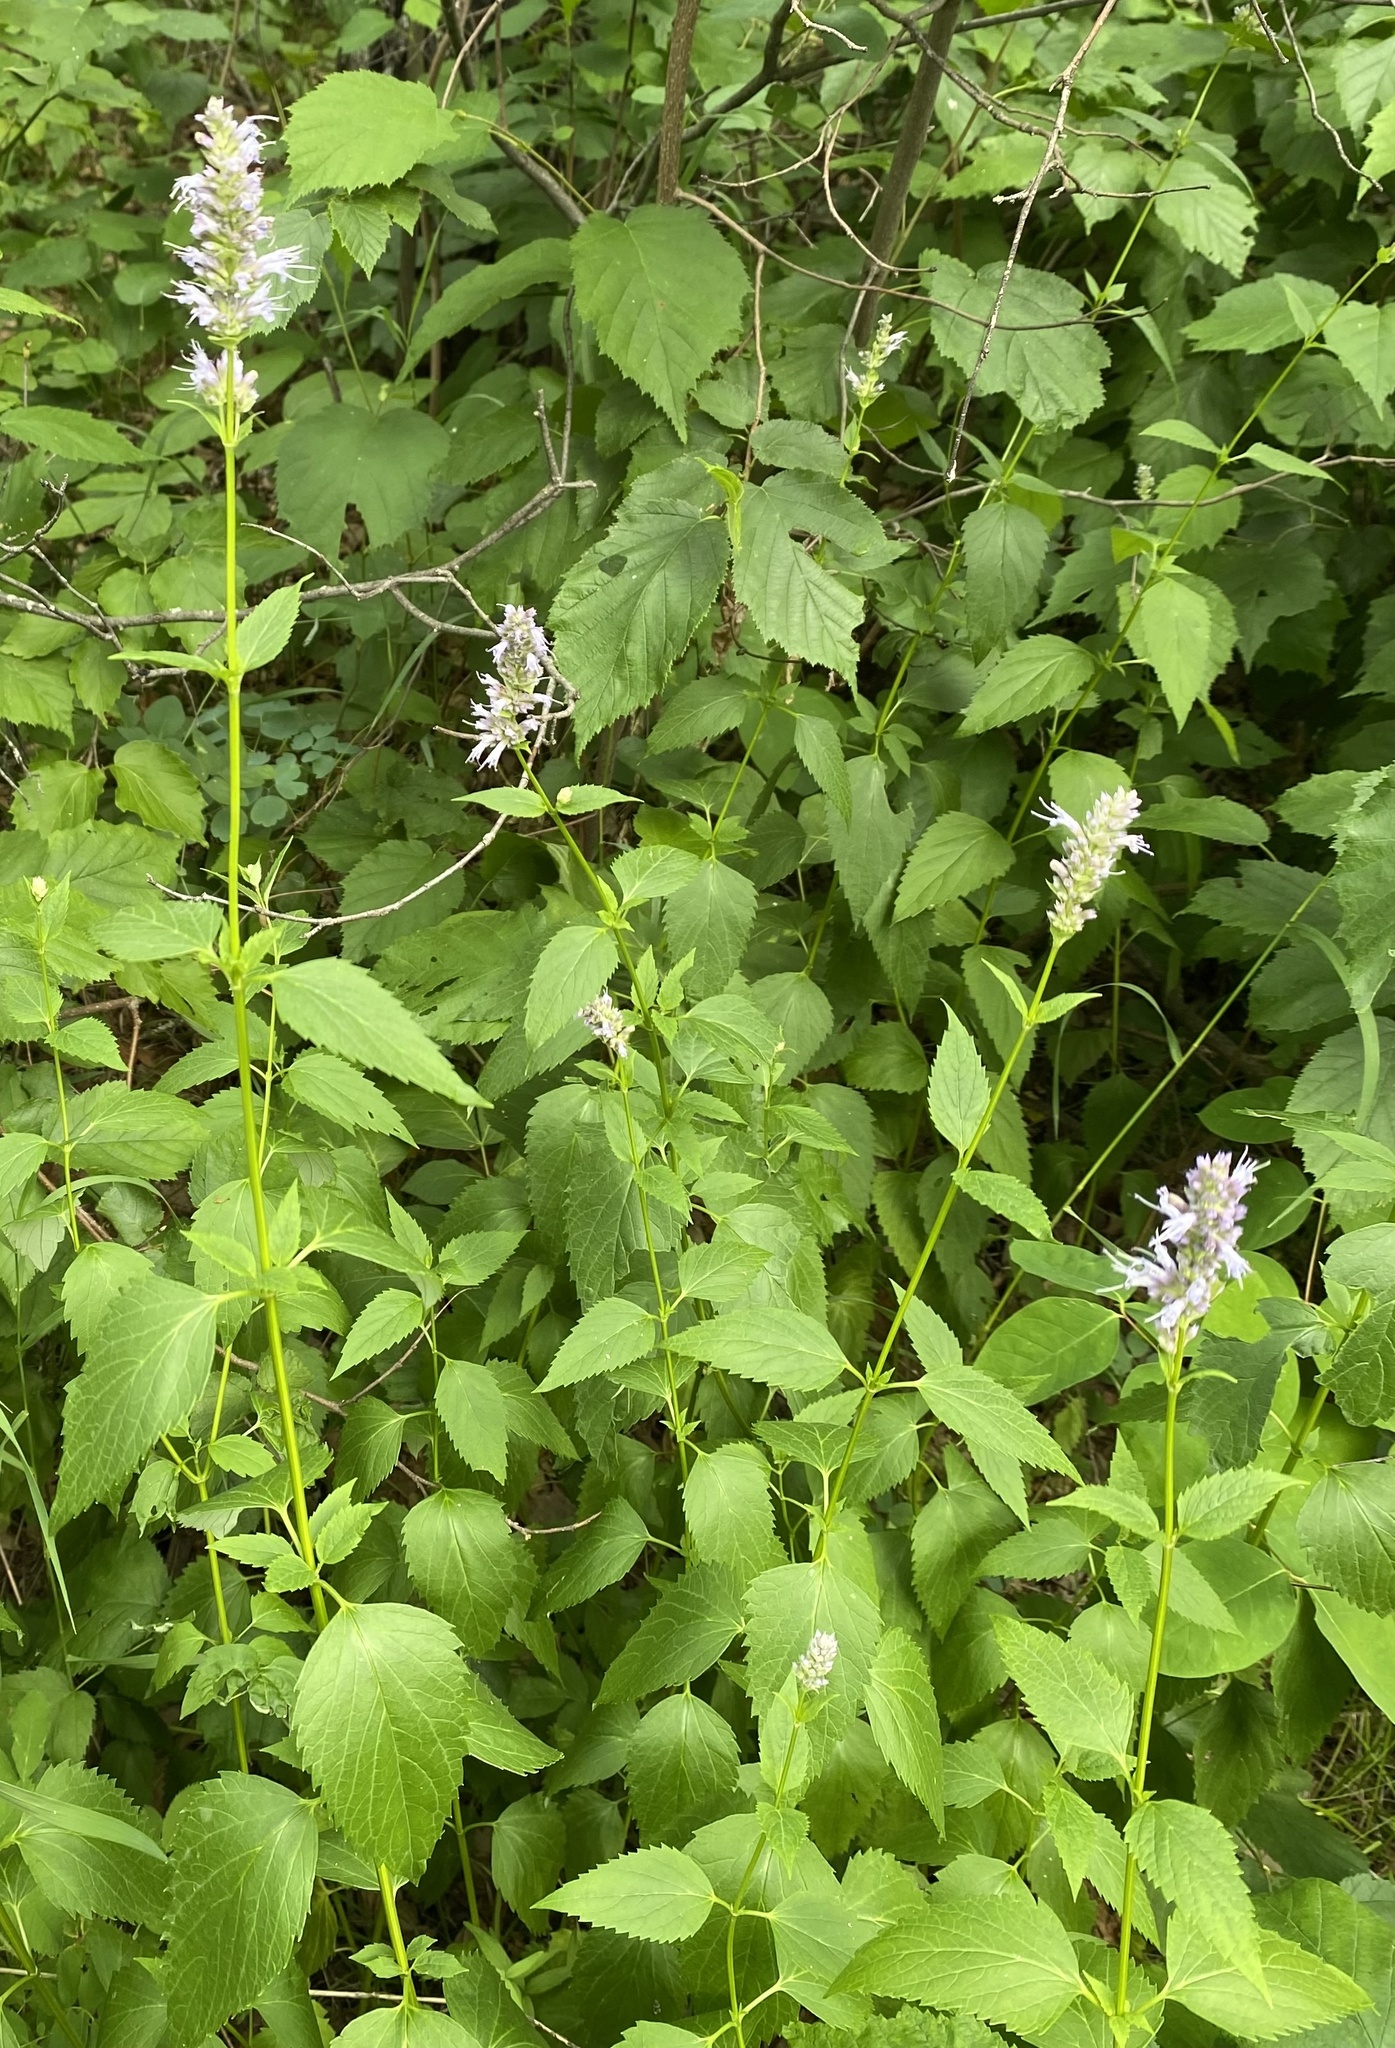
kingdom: Plantae
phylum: Tracheophyta
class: Magnoliopsida
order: Lamiales
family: Lamiaceae
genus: Agastache
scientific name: Agastache foeniculum
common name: Anise hyssop
